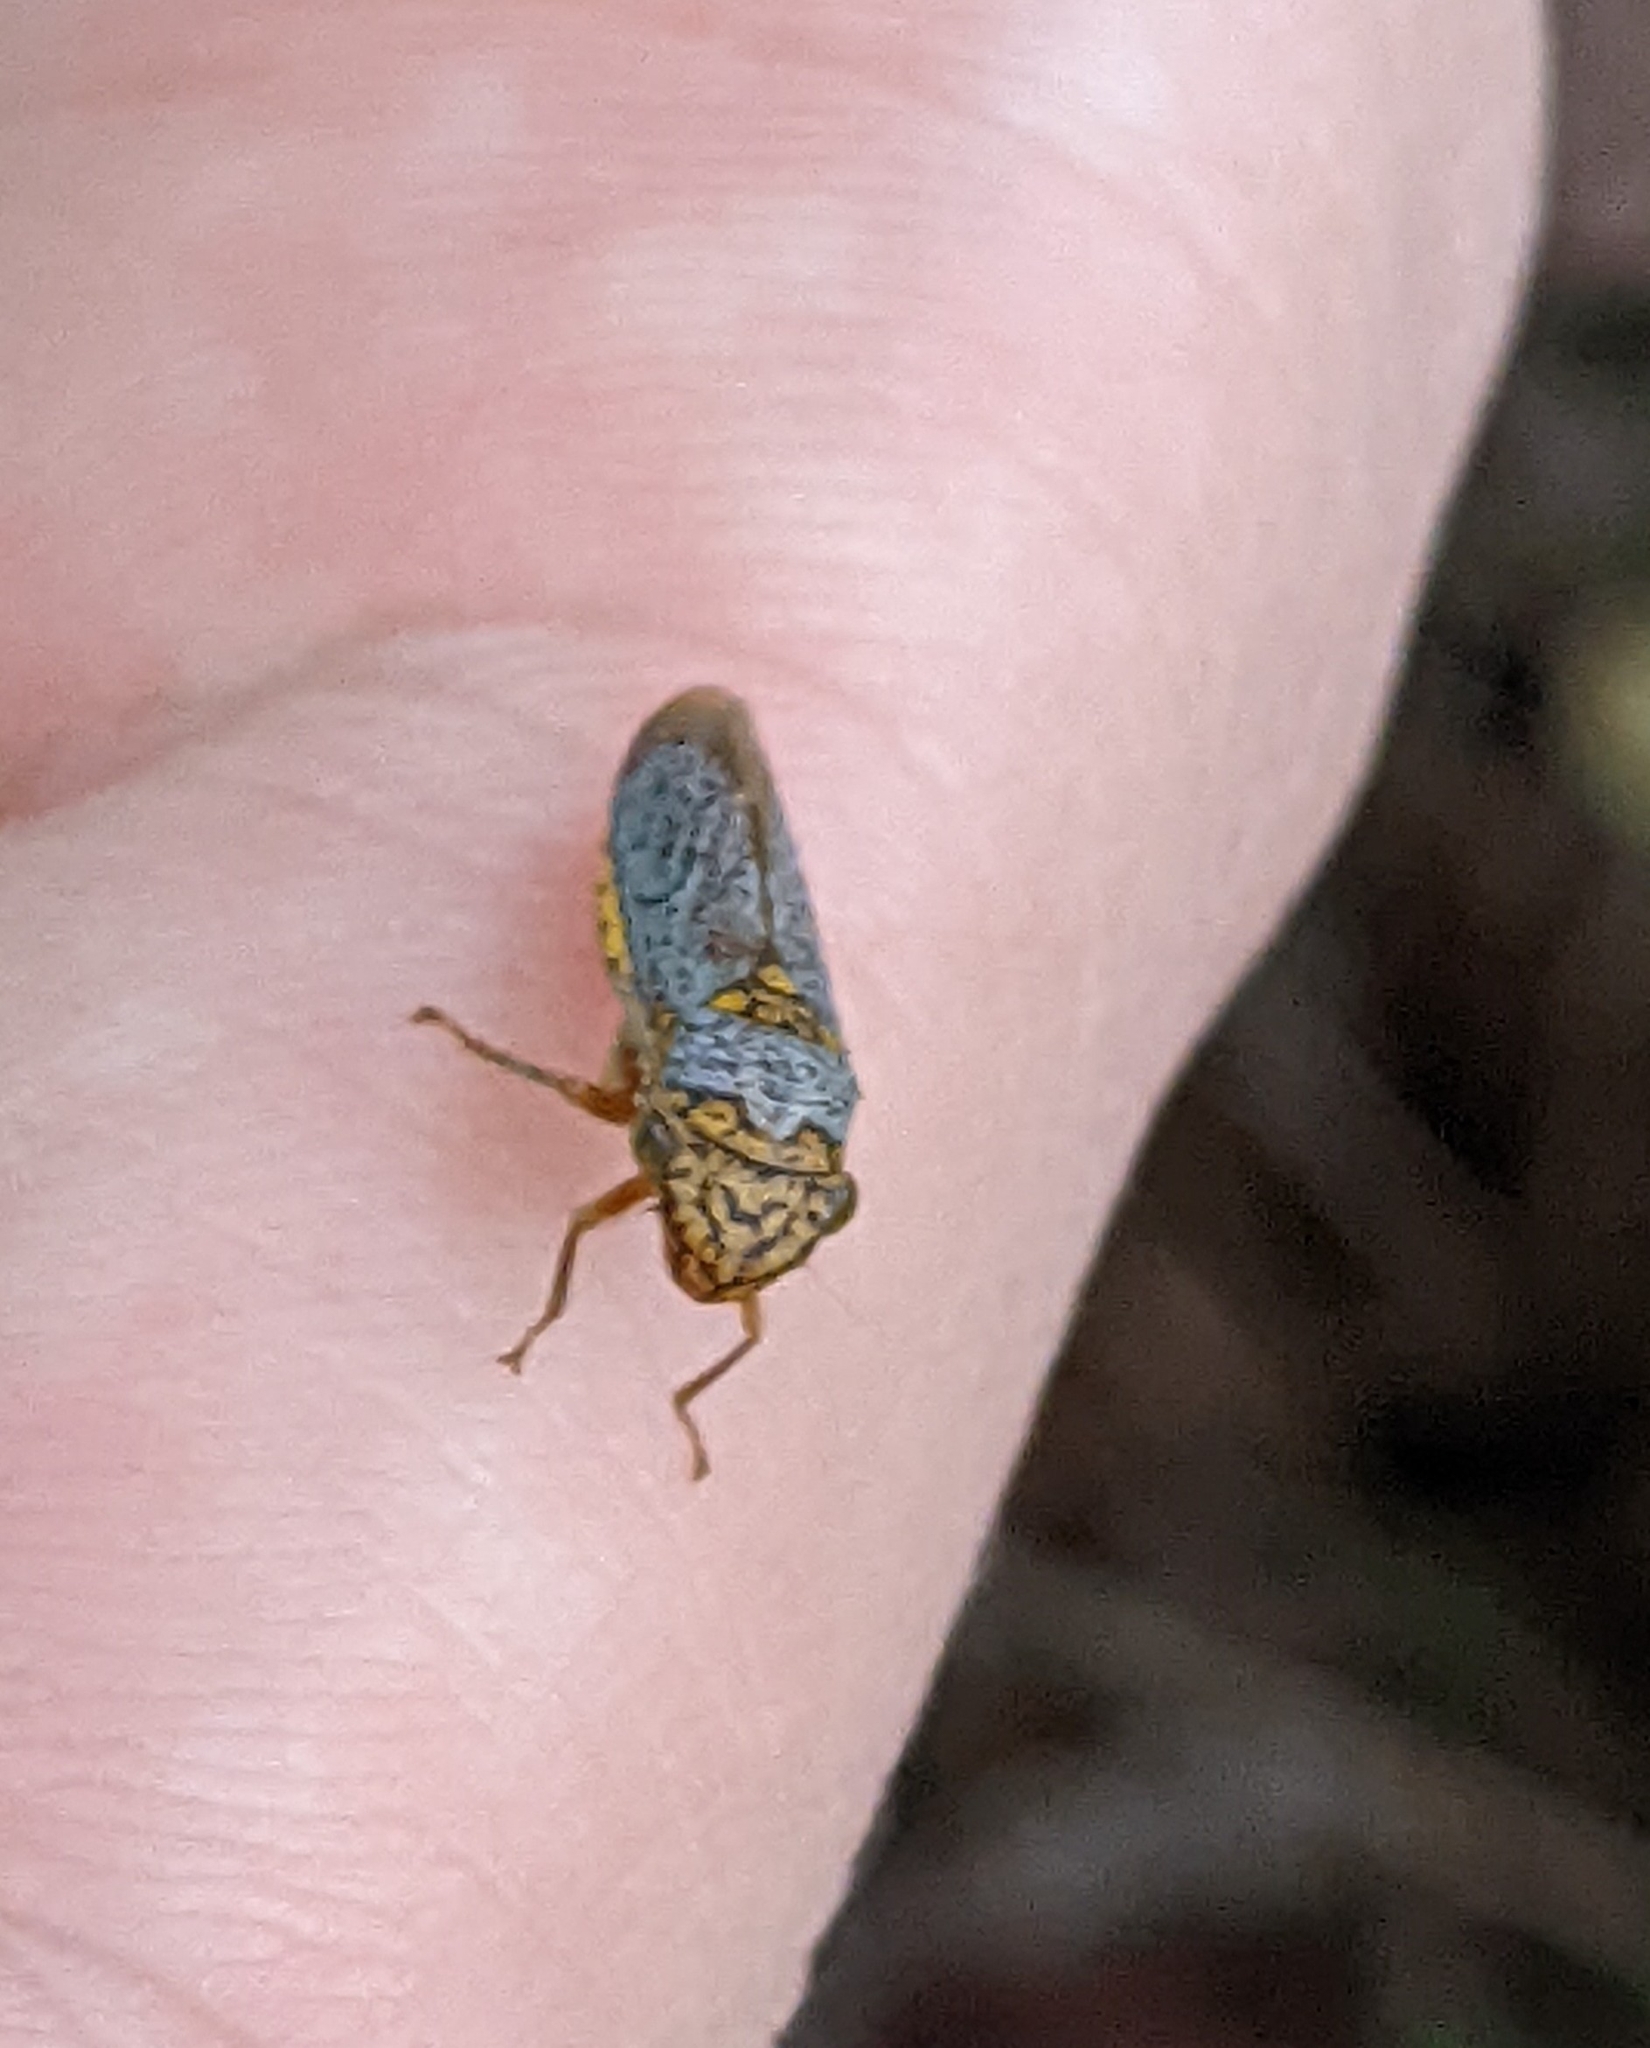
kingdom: Animalia
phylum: Arthropoda
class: Insecta
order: Hemiptera
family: Cicadellidae
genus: Oncometopia
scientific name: Oncometopia orbona
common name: Broad-headed sharpshooter
